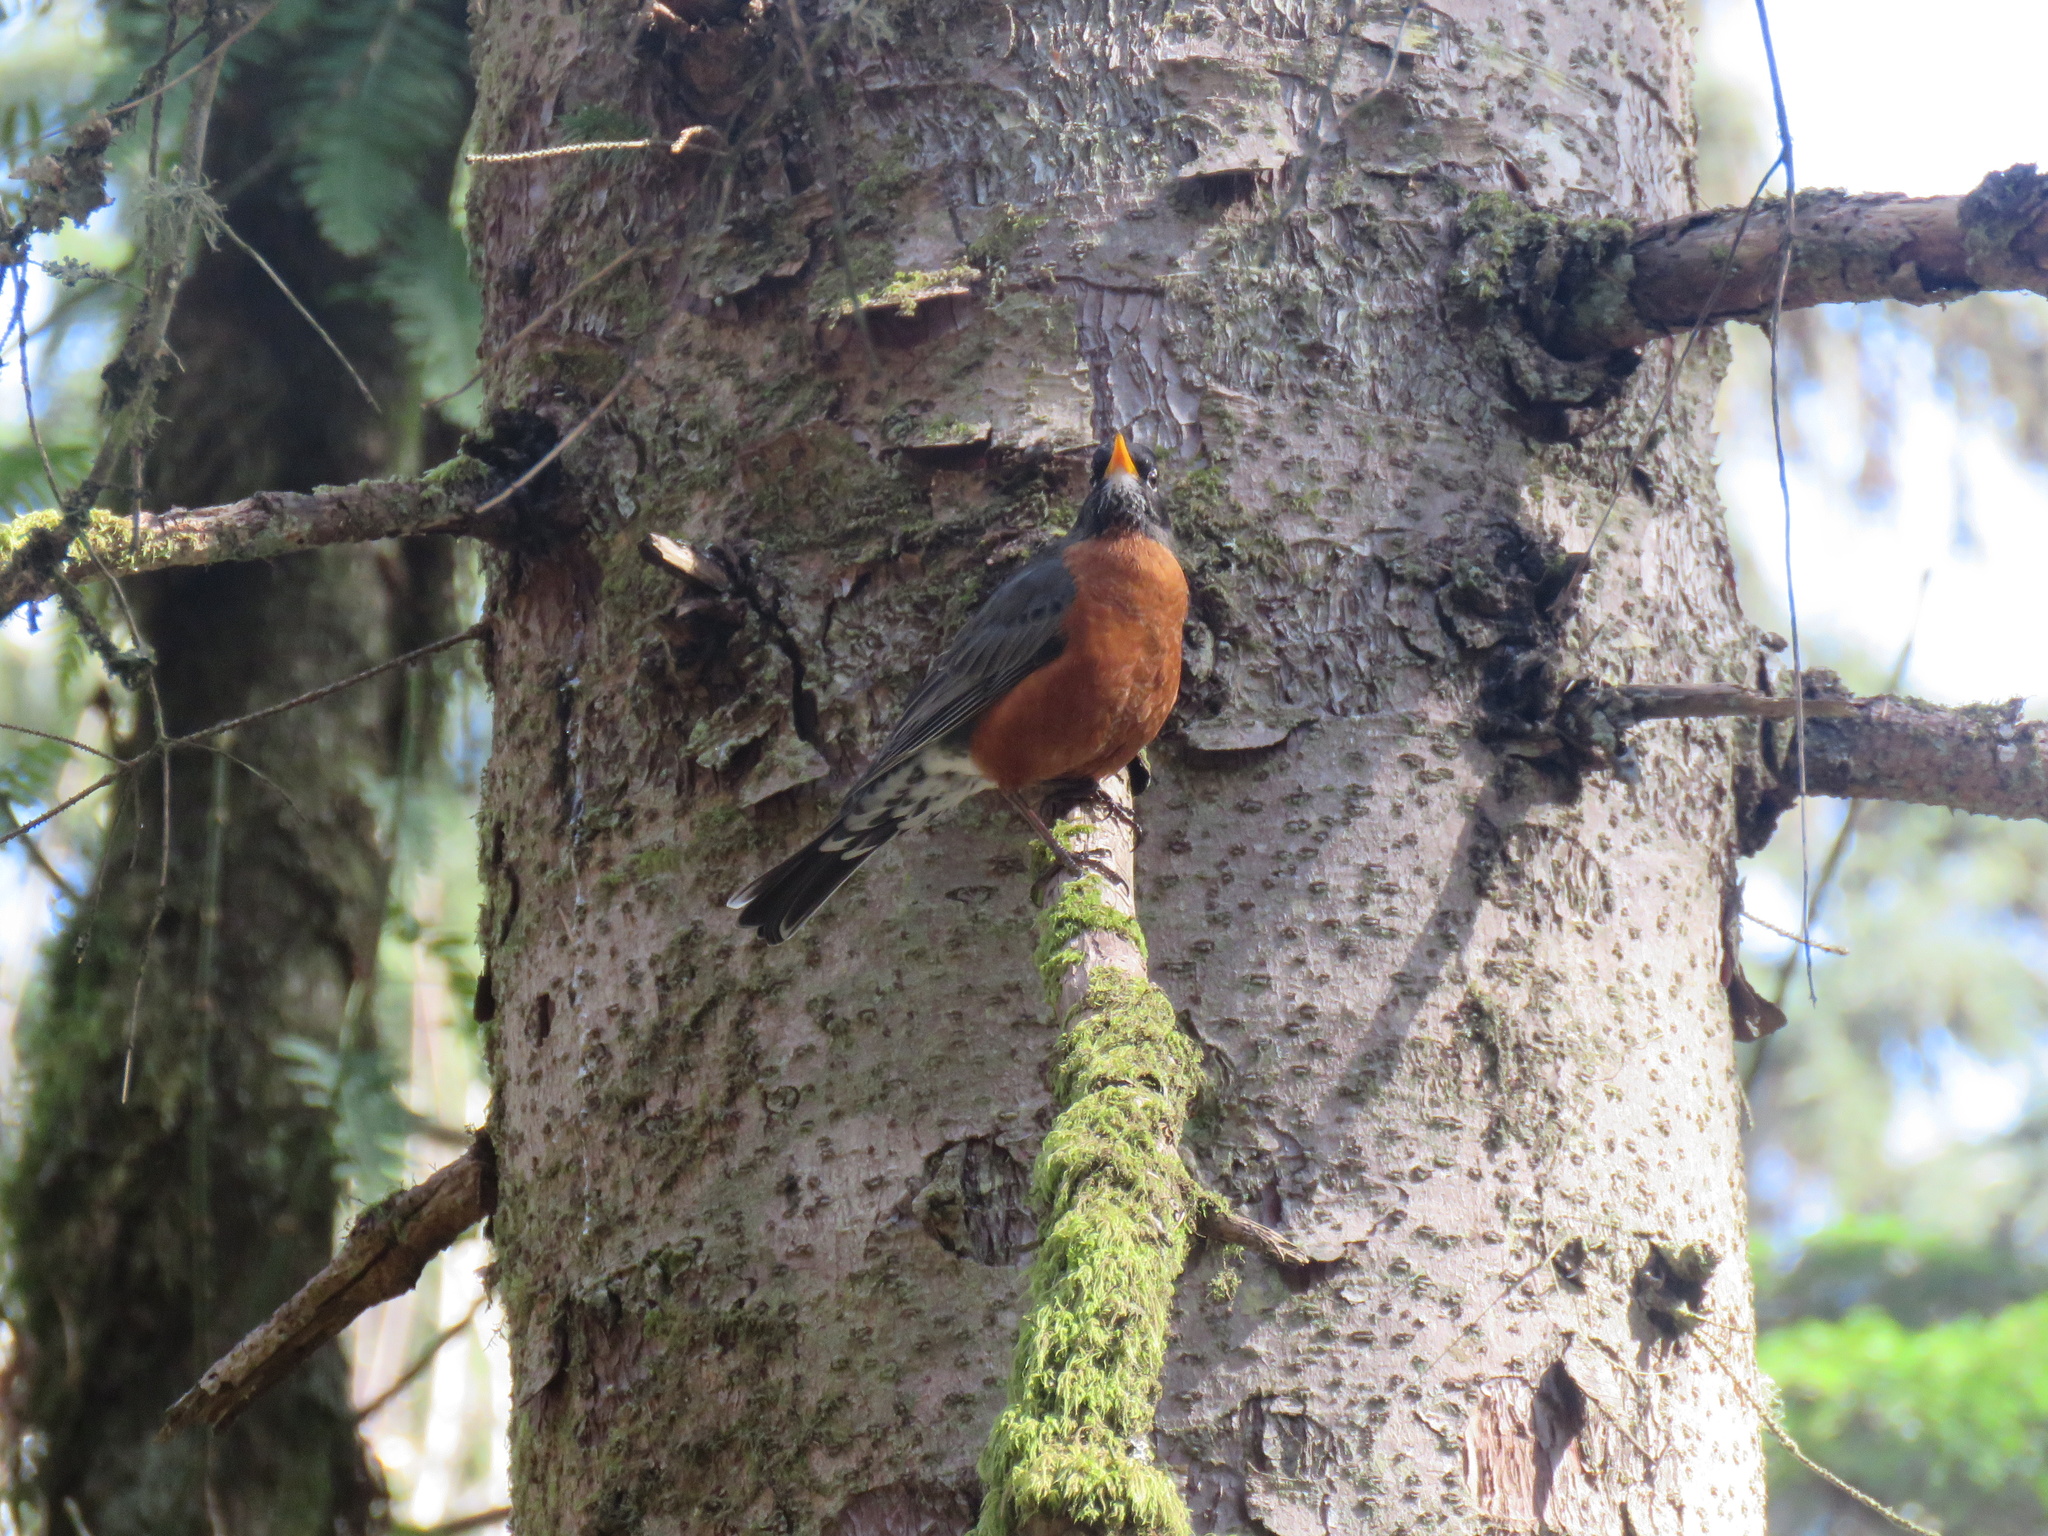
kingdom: Animalia
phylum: Chordata
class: Aves
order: Passeriformes
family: Turdidae
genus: Turdus
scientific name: Turdus migratorius
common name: American robin
